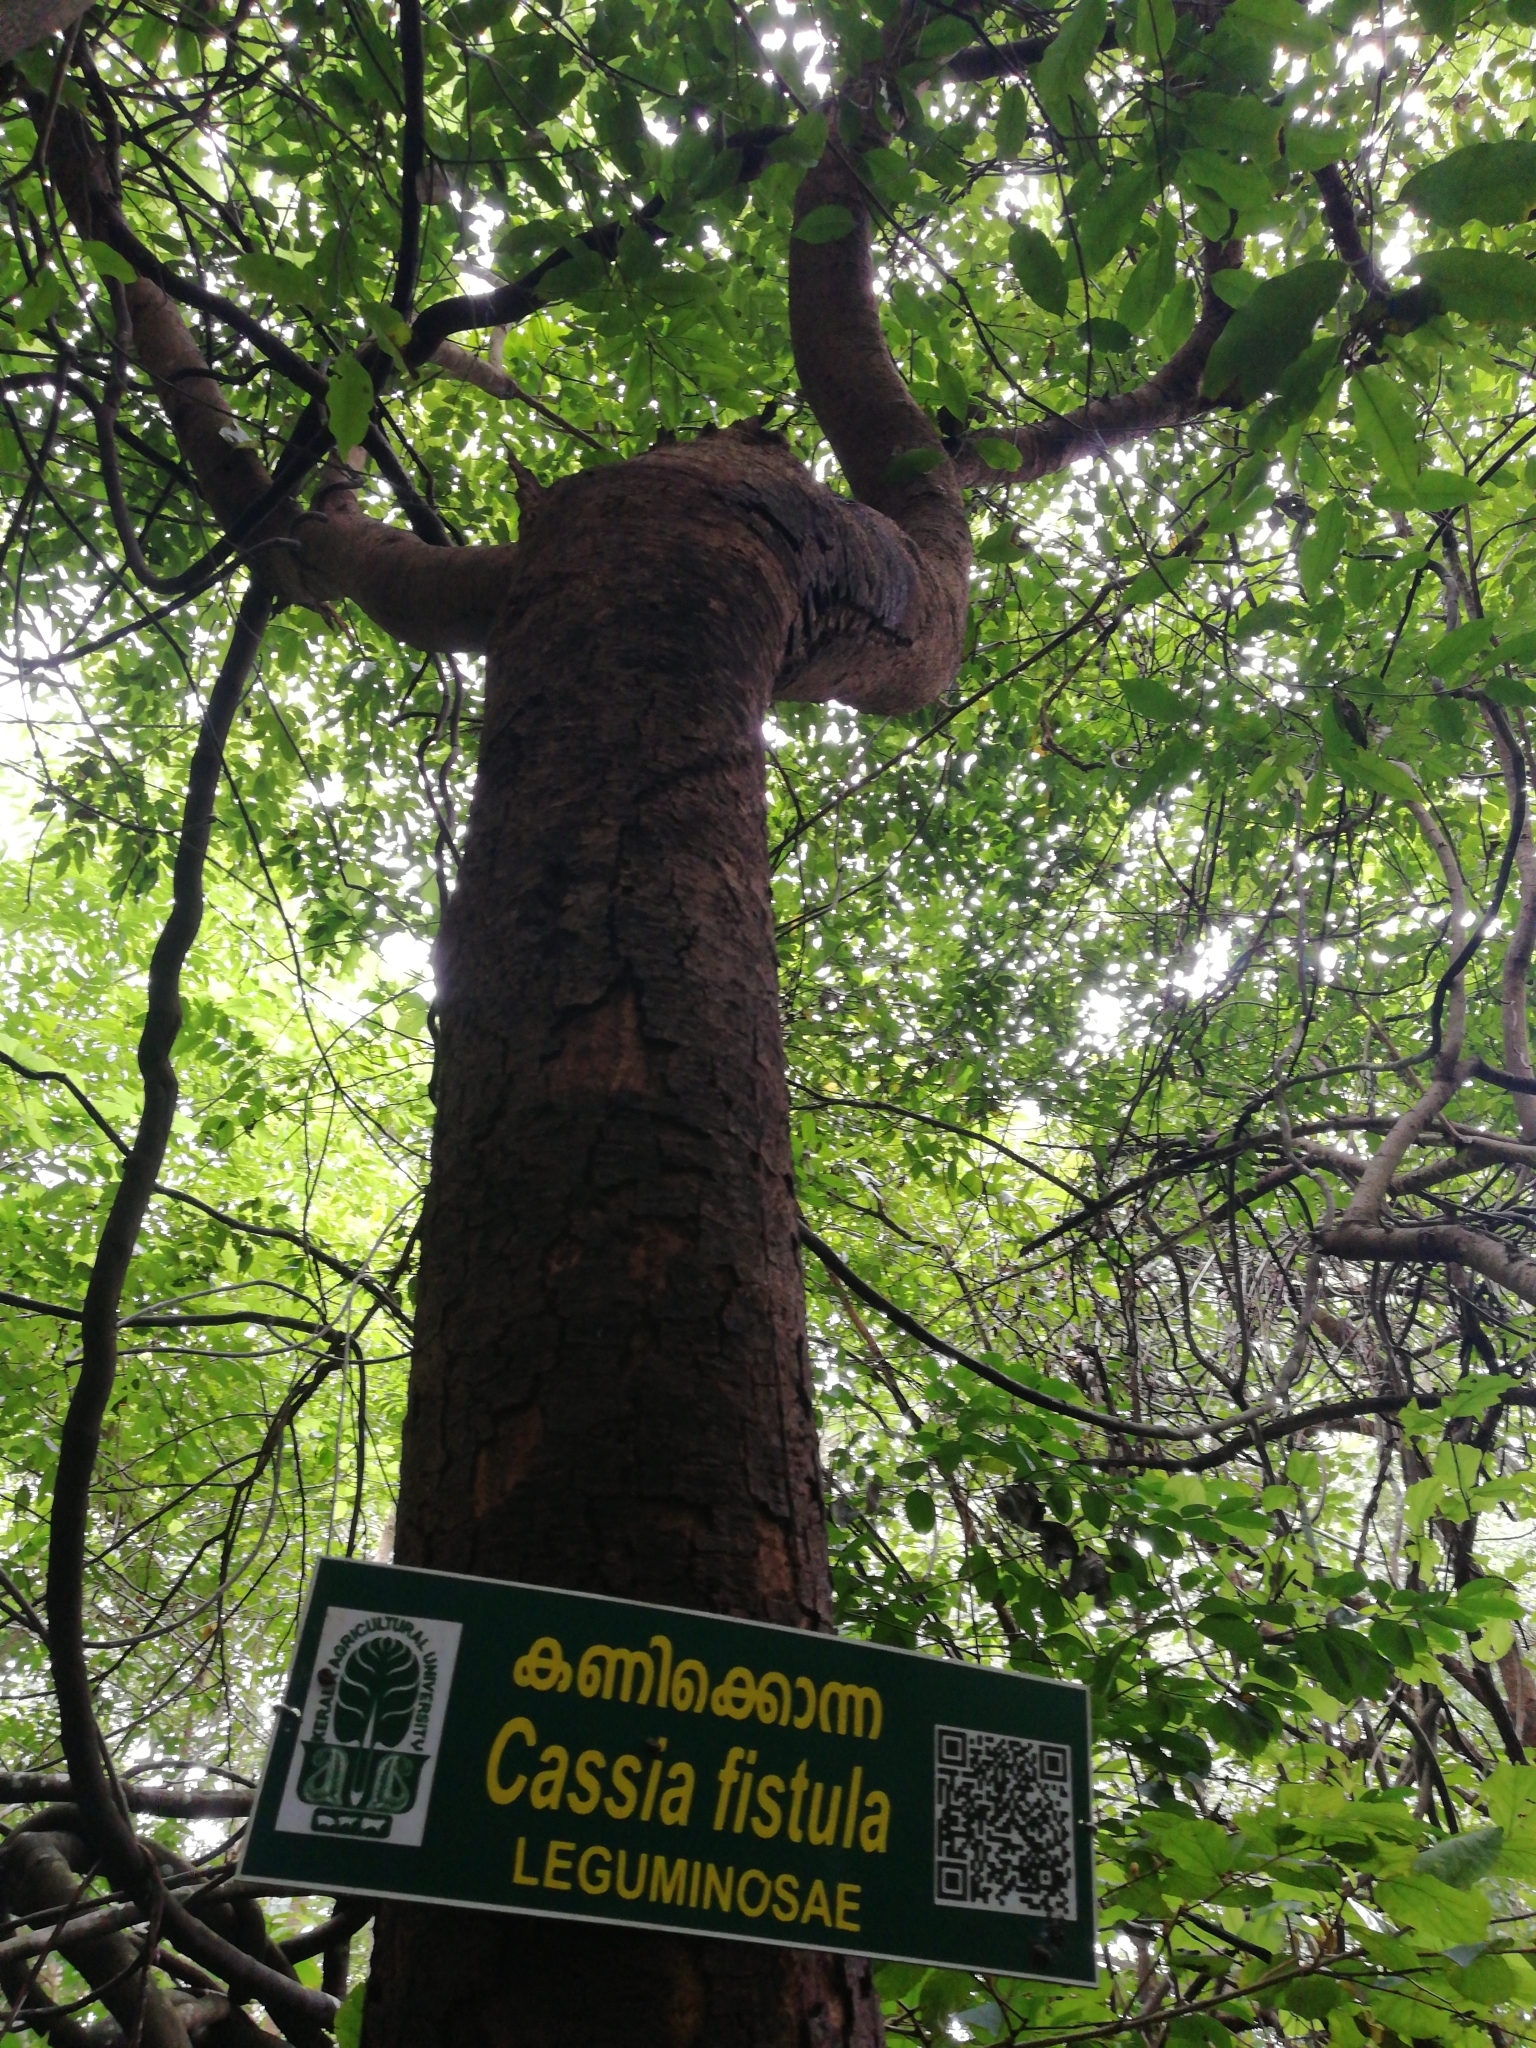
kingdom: Plantae
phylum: Tracheophyta
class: Magnoliopsida
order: Fabales
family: Fabaceae
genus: Cassia
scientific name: Cassia fistula
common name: Golden shower
